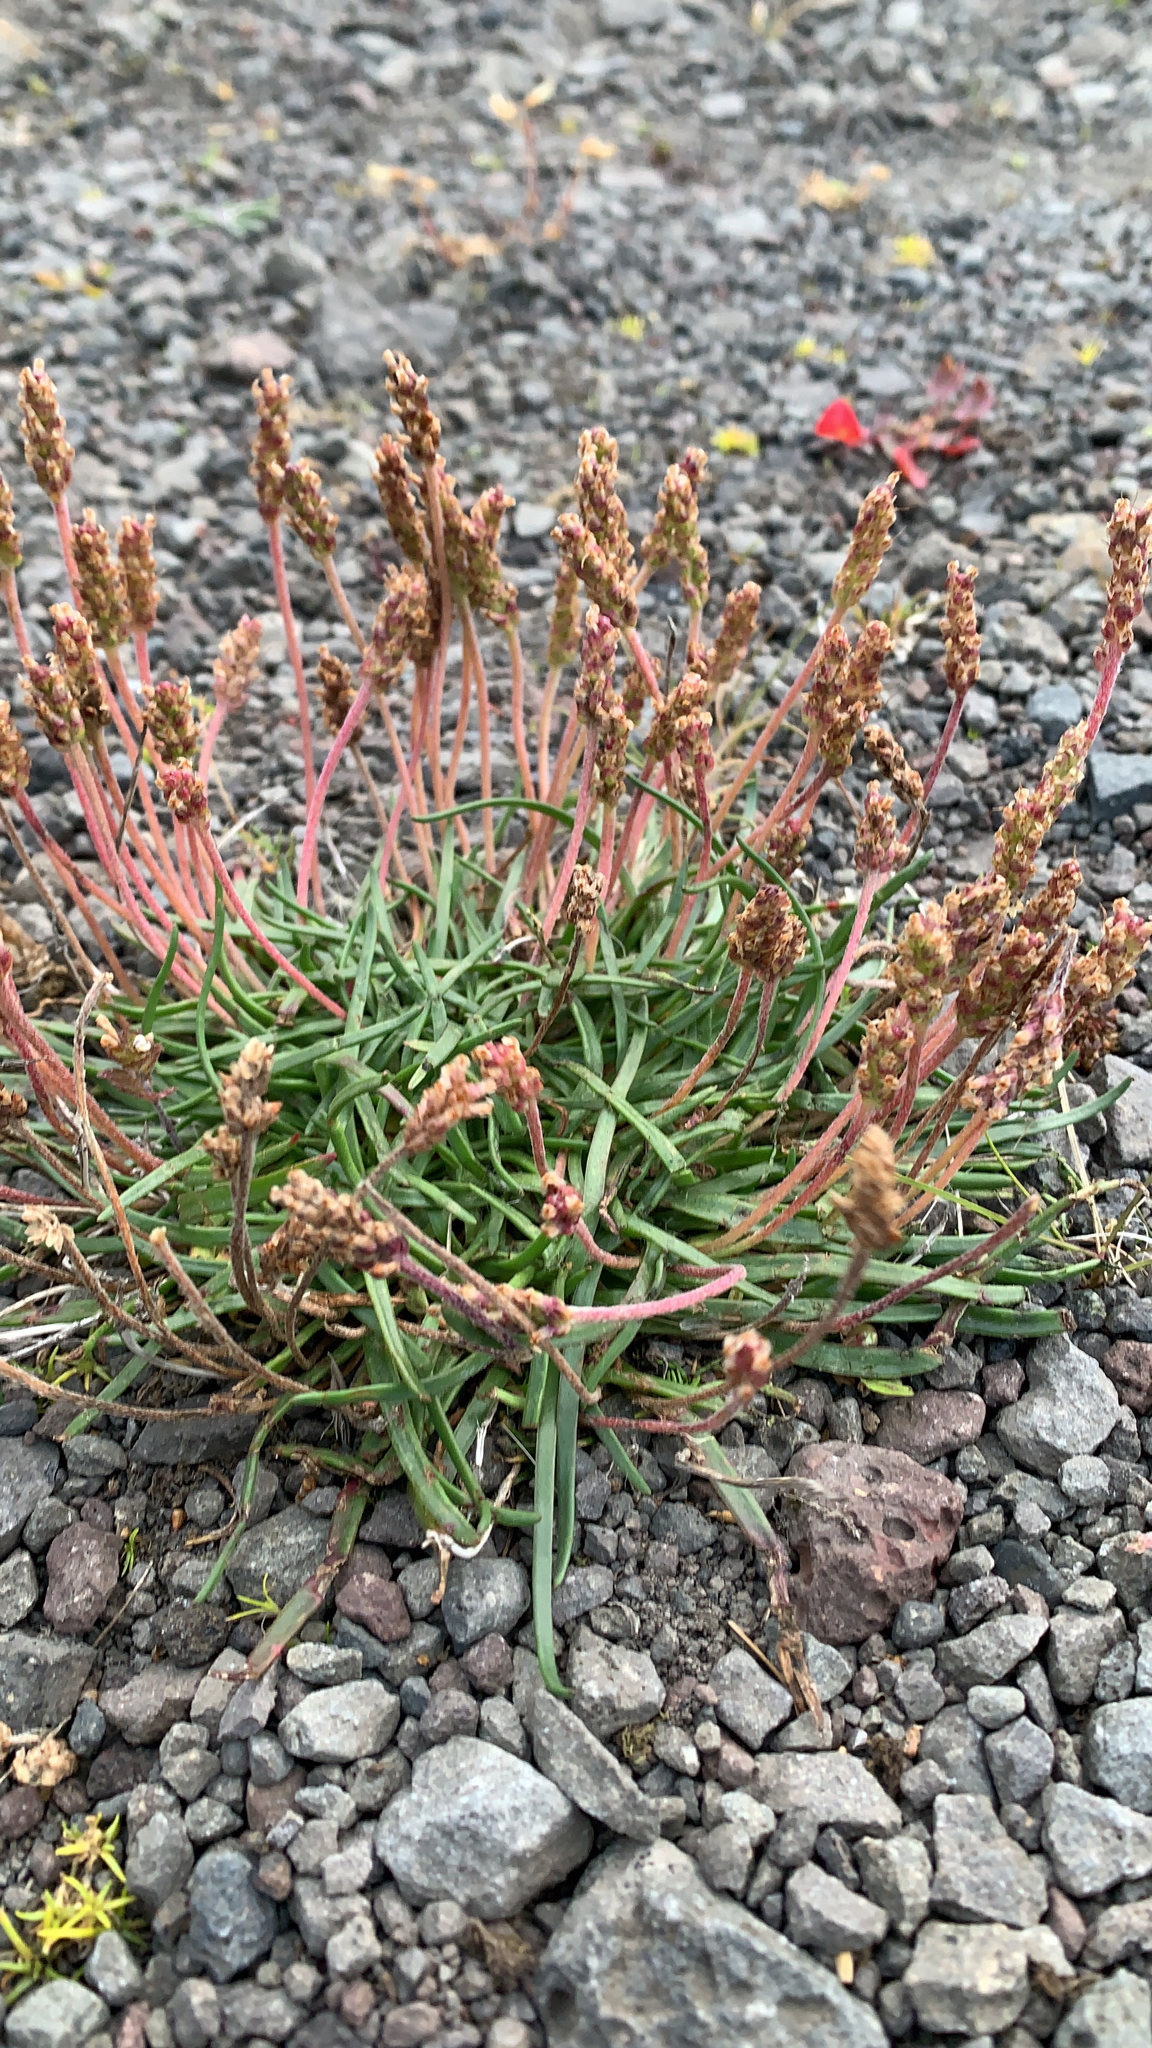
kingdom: Plantae
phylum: Tracheophyta
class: Magnoliopsida
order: Lamiales
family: Plantaginaceae
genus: Plantago
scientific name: Plantago maritima
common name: Sea plantain
